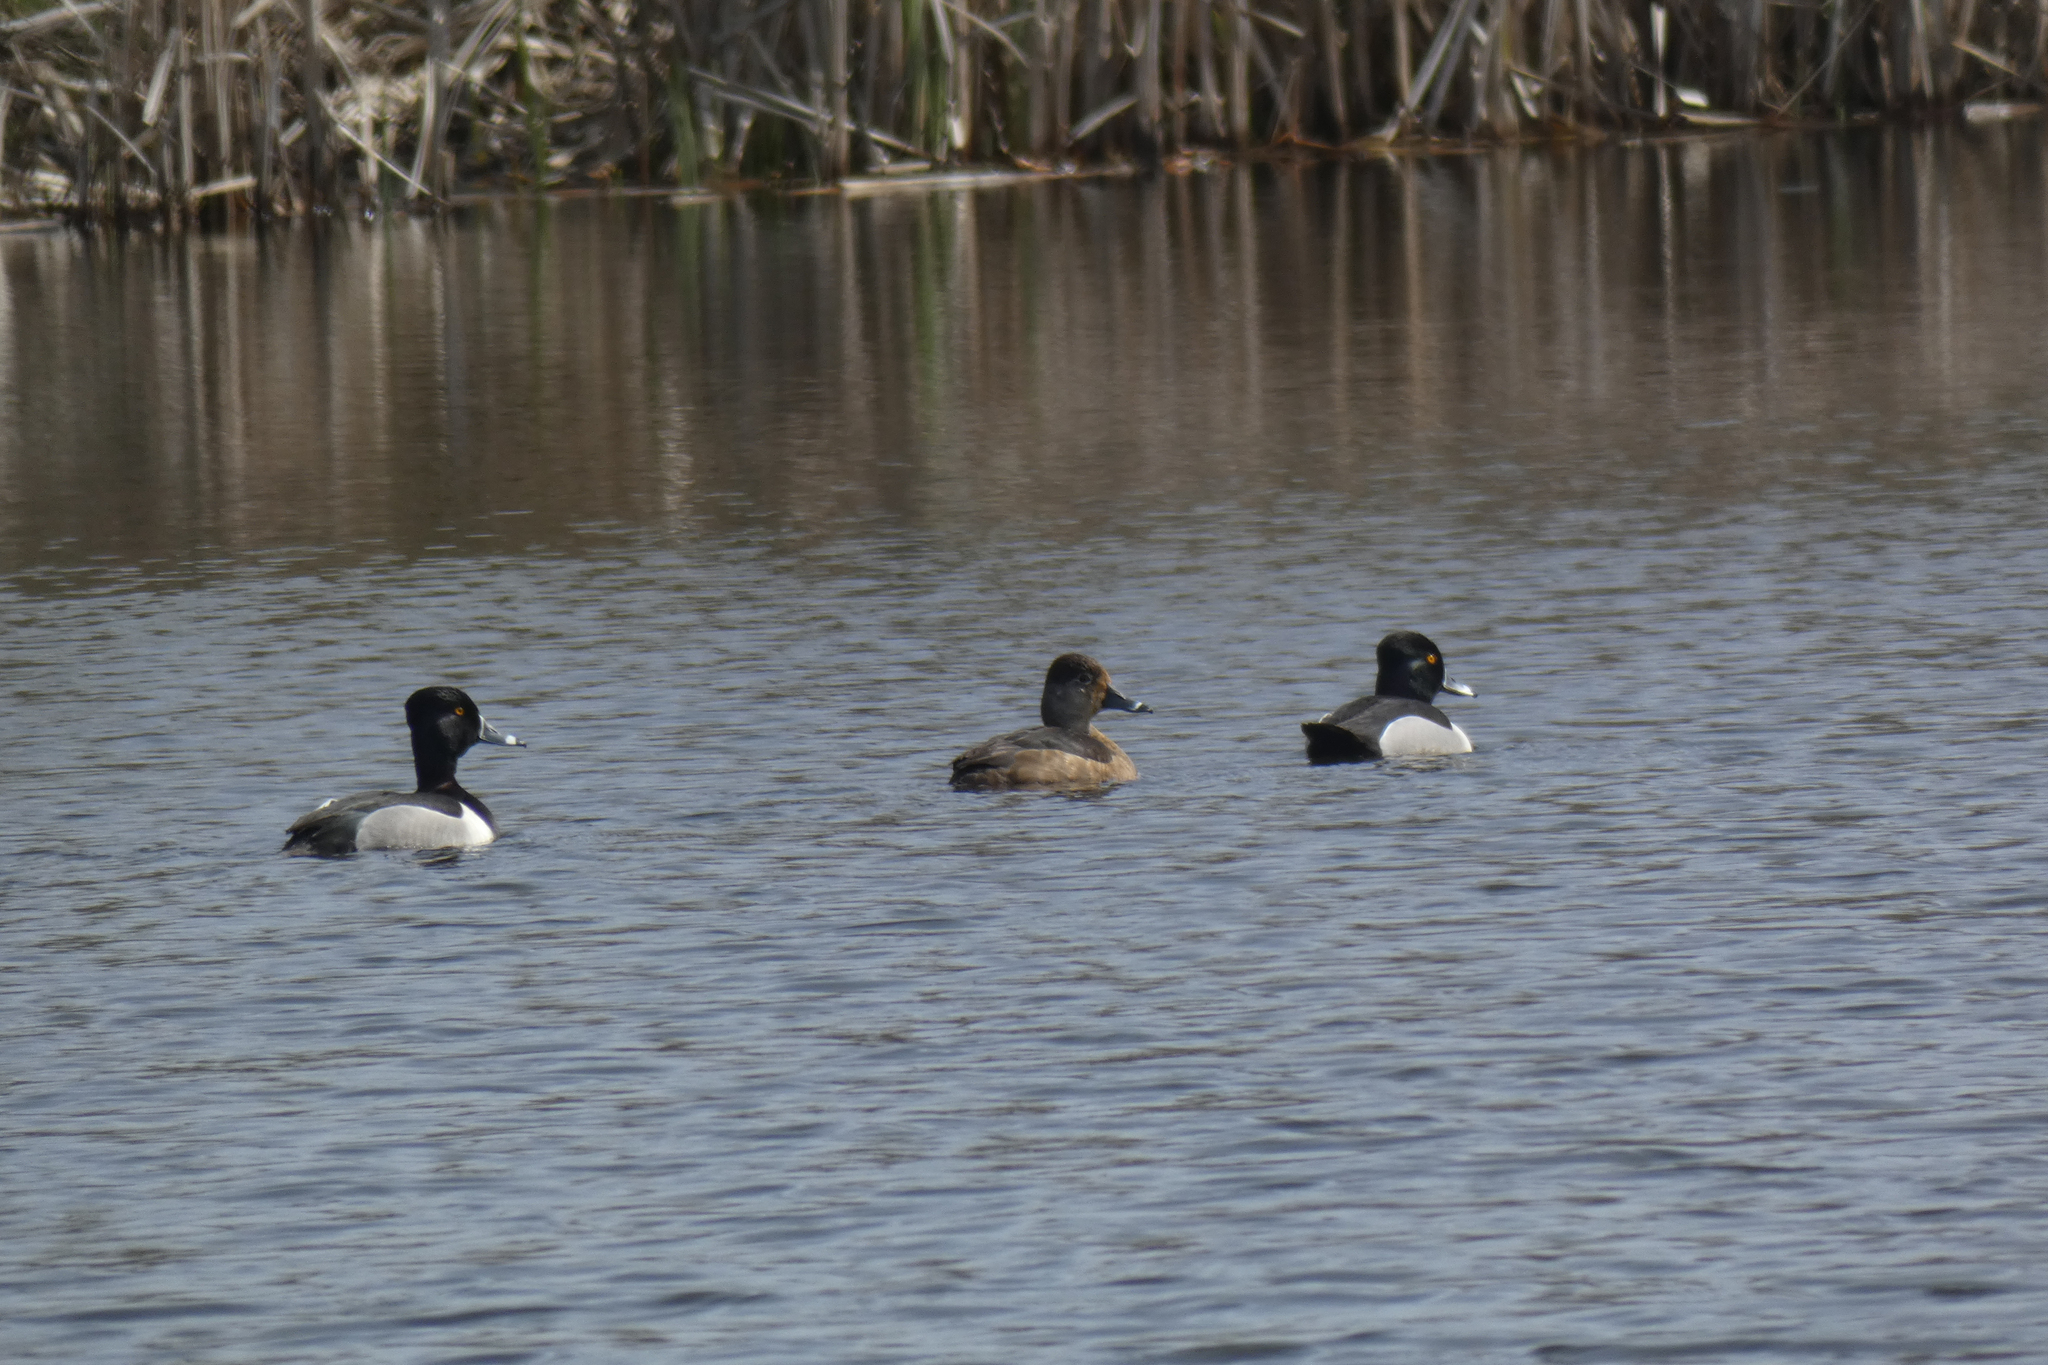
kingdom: Animalia
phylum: Chordata
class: Aves
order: Anseriformes
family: Anatidae
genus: Aythya
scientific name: Aythya collaris
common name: Ring-necked duck
